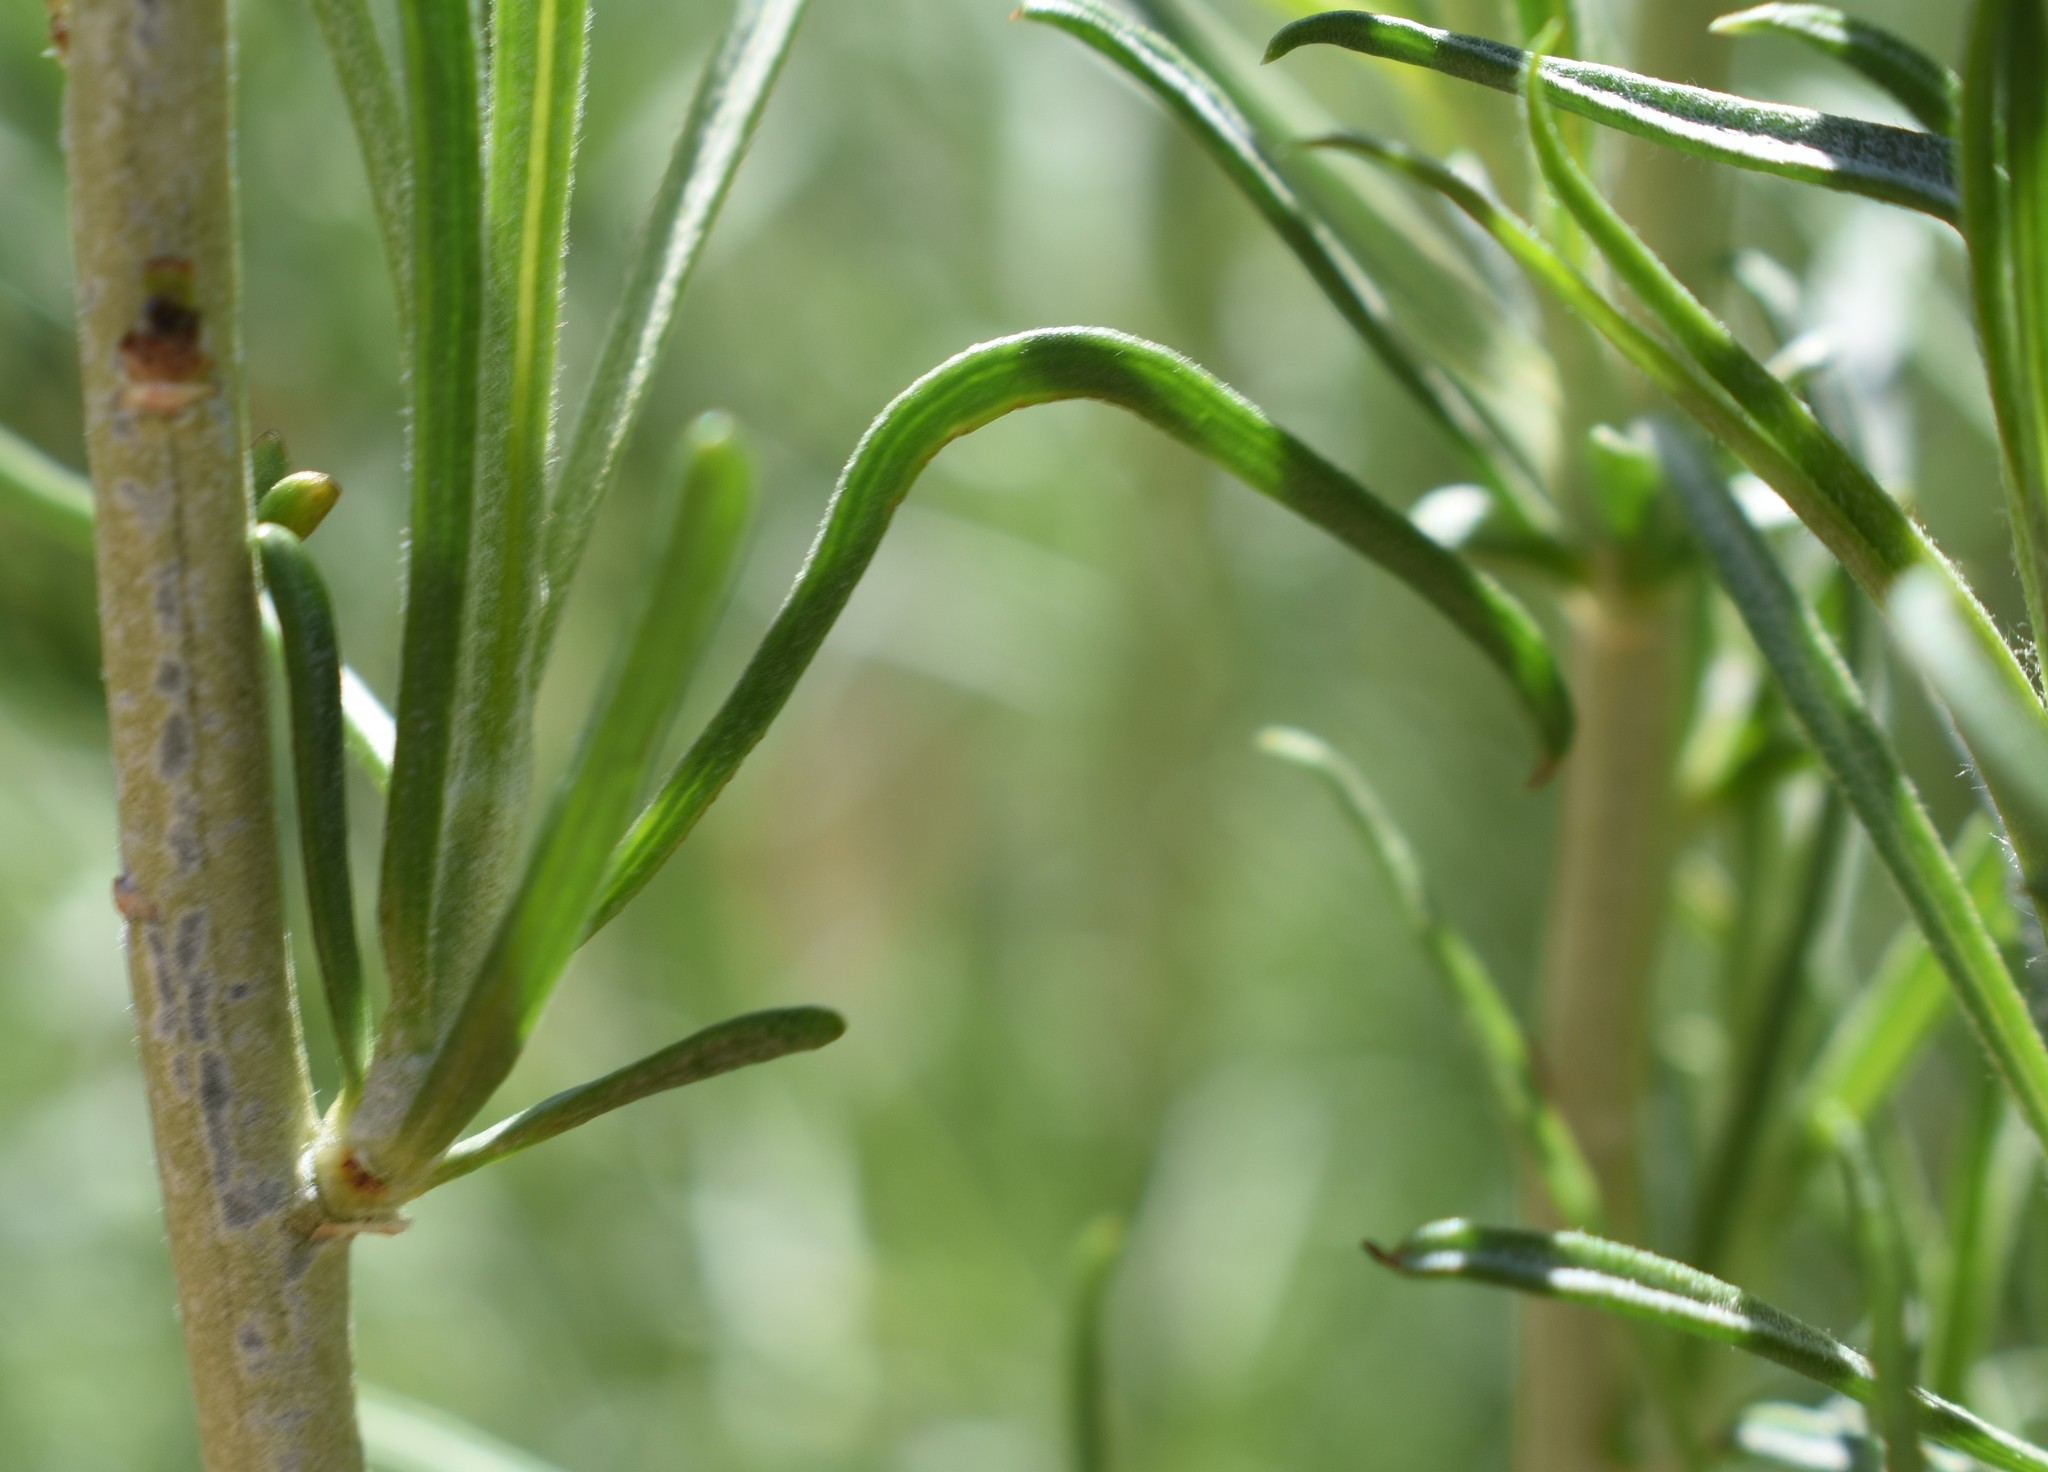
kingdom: Plantae
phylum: Tracheophyta
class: Magnoliopsida
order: Asterales
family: Asteraceae
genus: Ericameria
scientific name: Ericameria nauseosa
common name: Rubber rabbitbrush
